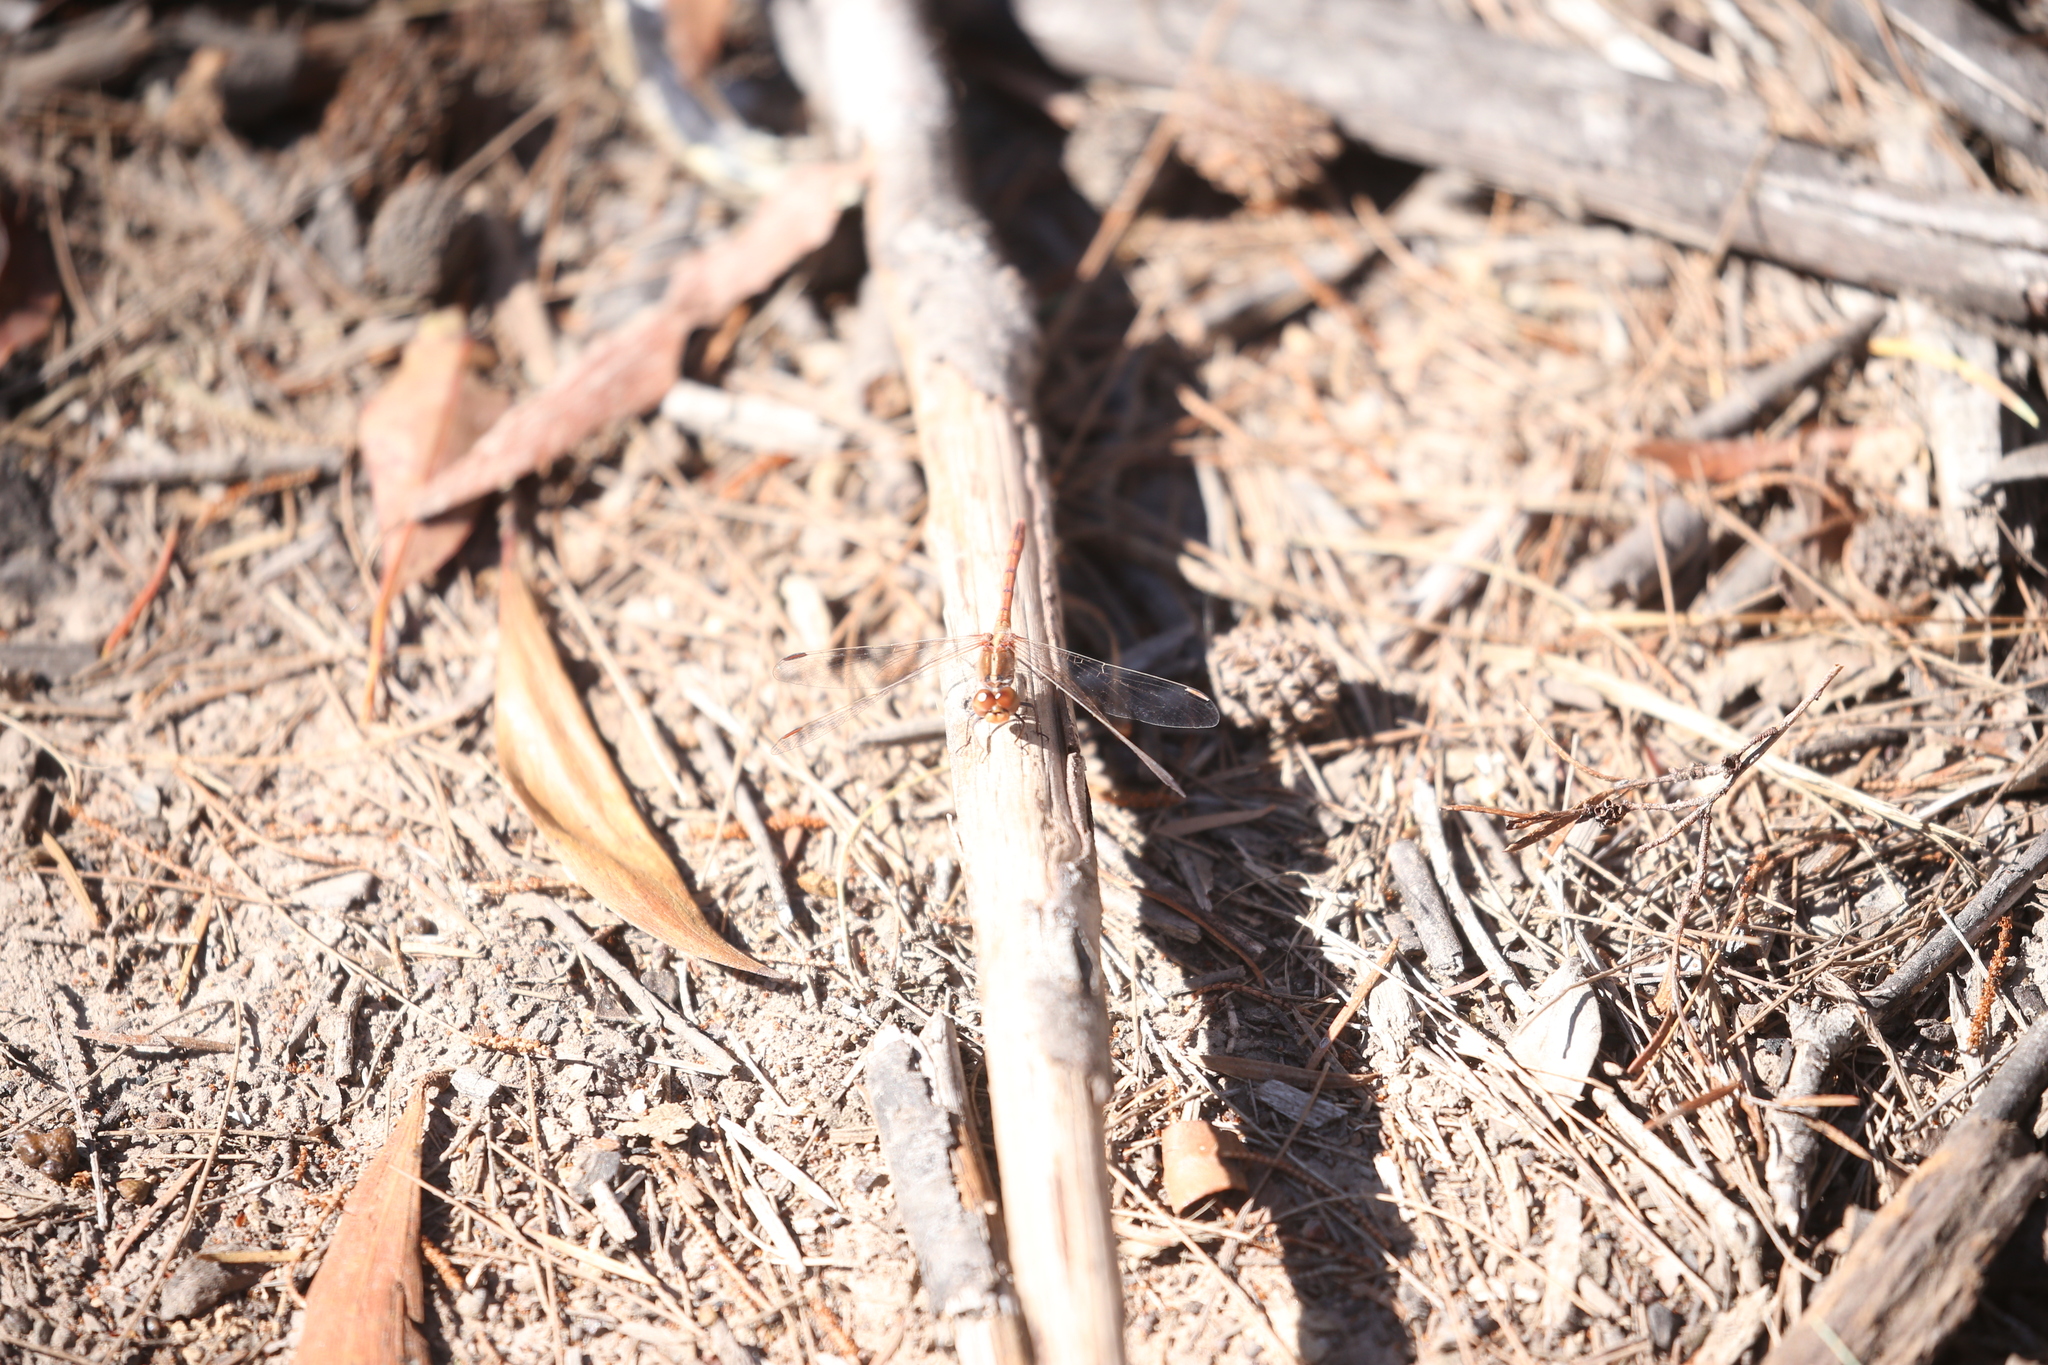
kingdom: Animalia
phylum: Arthropoda
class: Insecta
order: Odonata
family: Libellulidae
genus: Diplacodes
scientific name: Diplacodes bipunctata
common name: Red percher dragonfly
